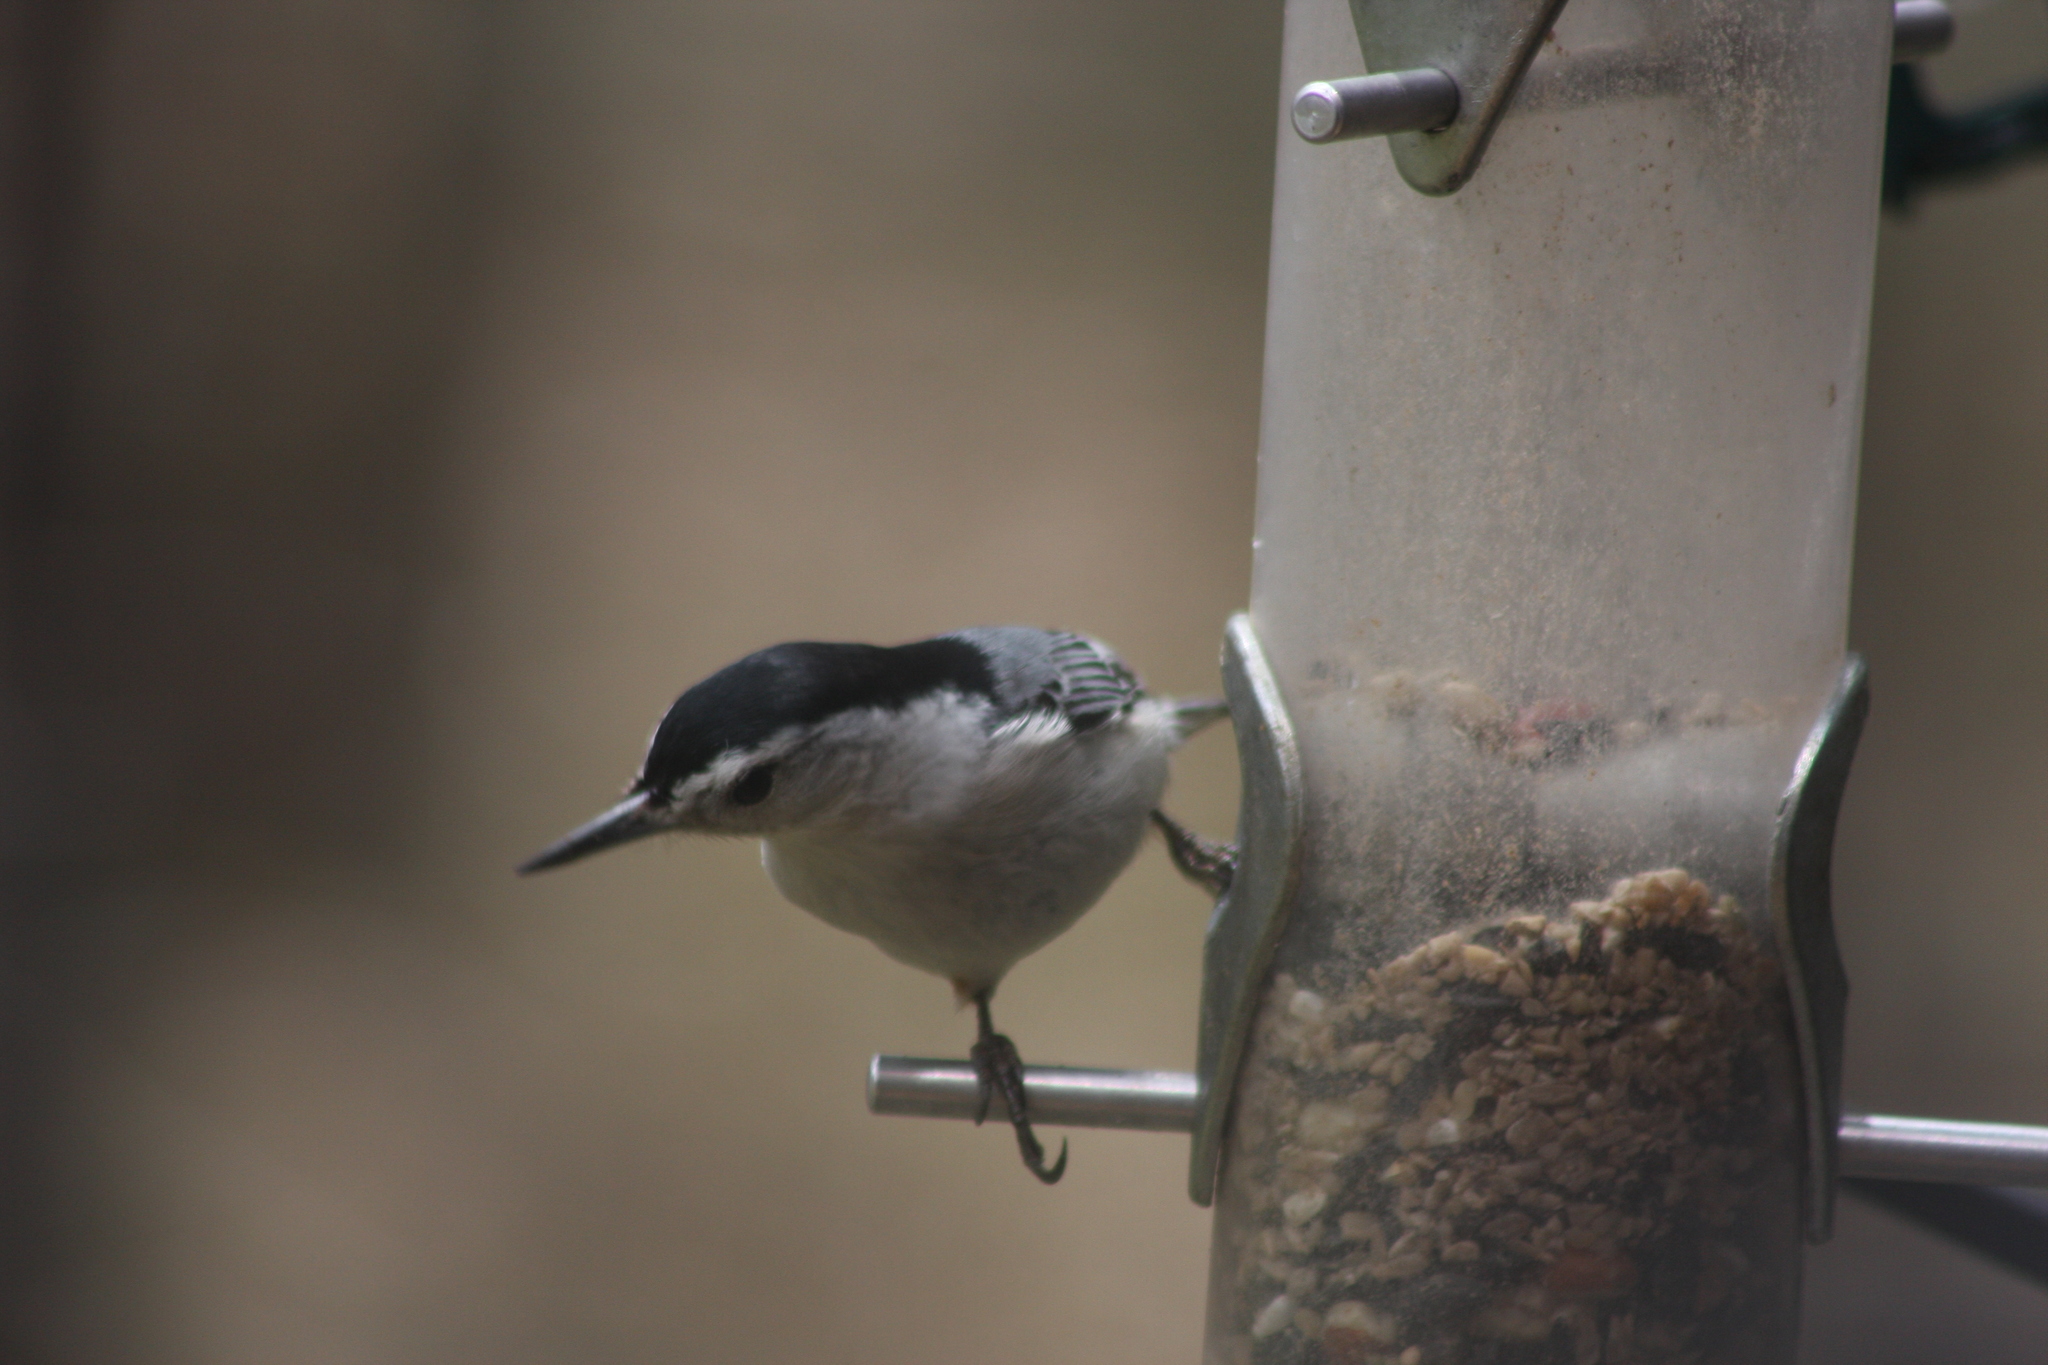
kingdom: Animalia
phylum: Chordata
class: Aves
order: Passeriformes
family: Sittidae
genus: Sitta
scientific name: Sitta carolinensis
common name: White-breasted nuthatch
